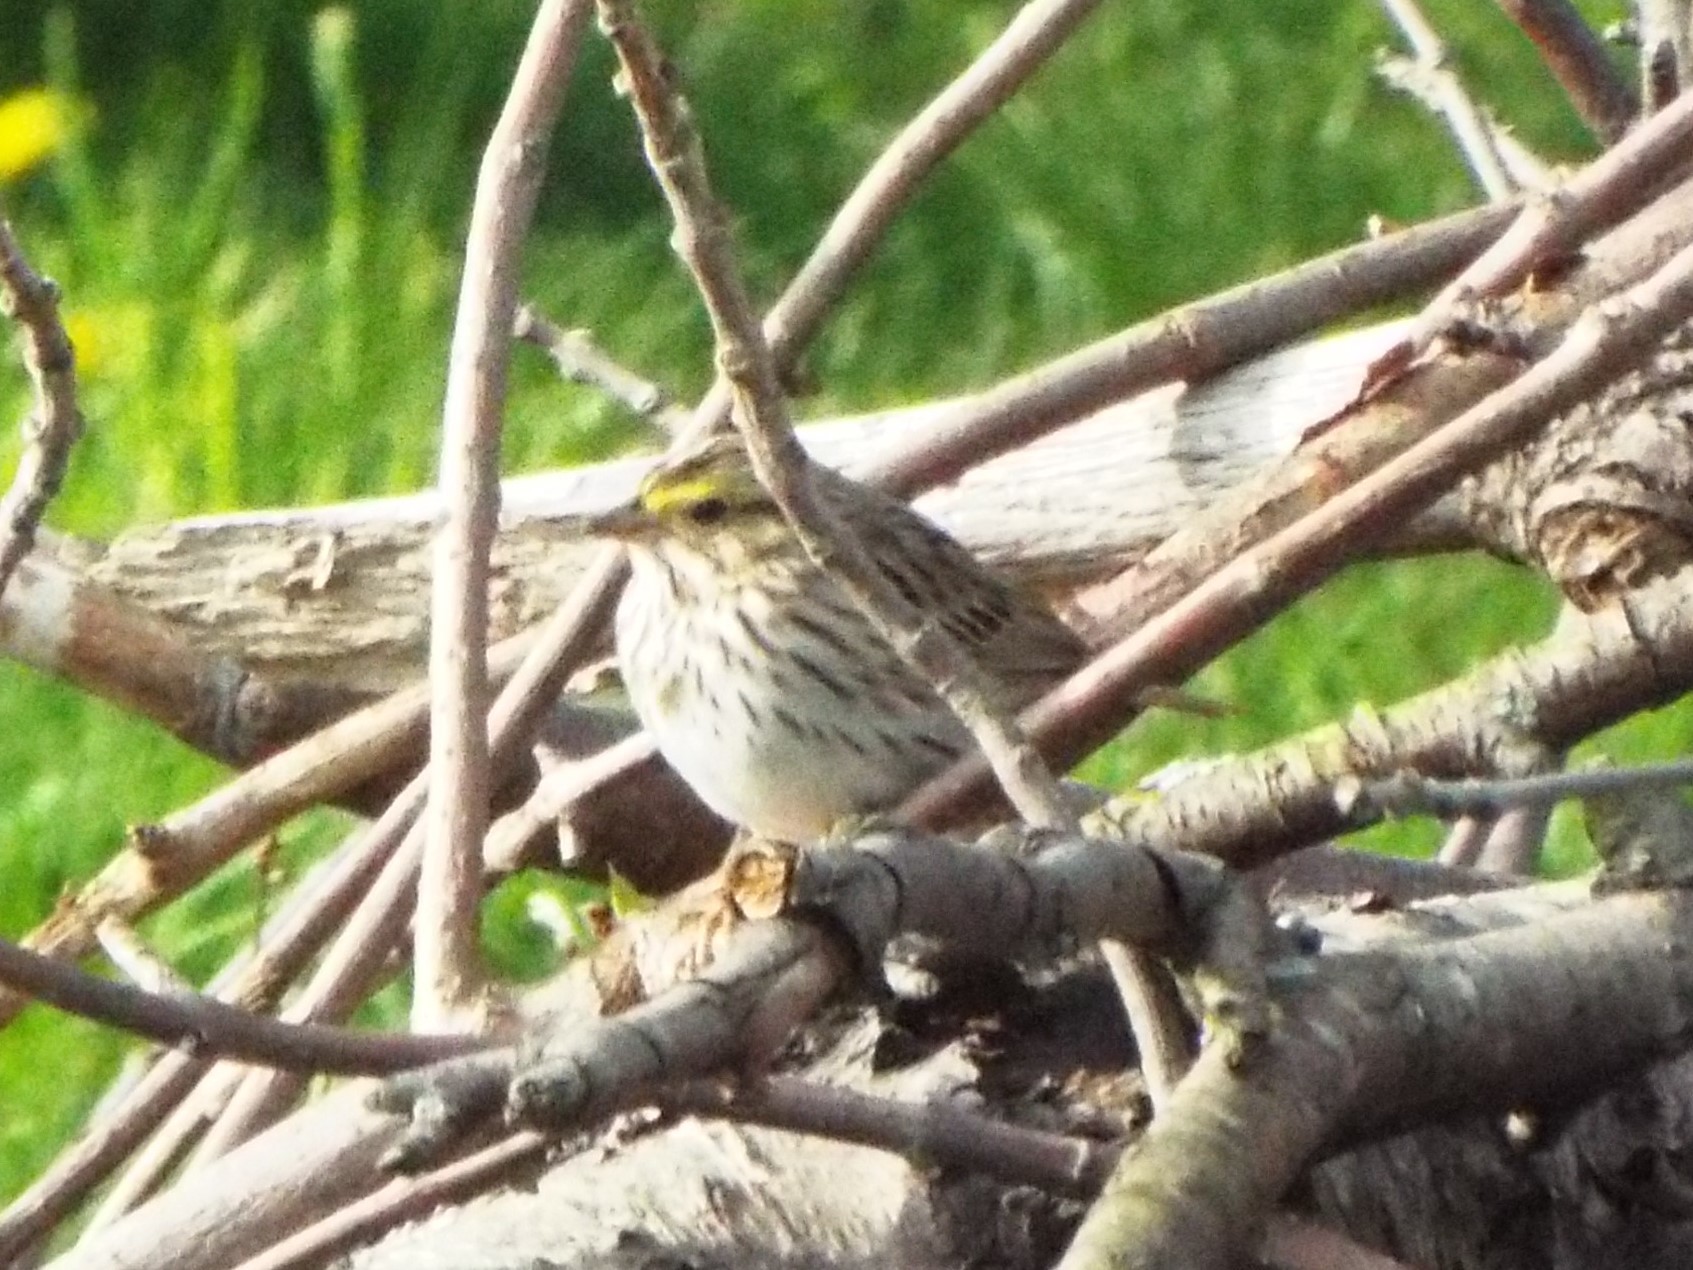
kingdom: Animalia
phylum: Chordata
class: Aves
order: Passeriformes
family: Passerellidae
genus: Passerculus
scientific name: Passerculus sandwichensis
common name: Savannah sparrow
